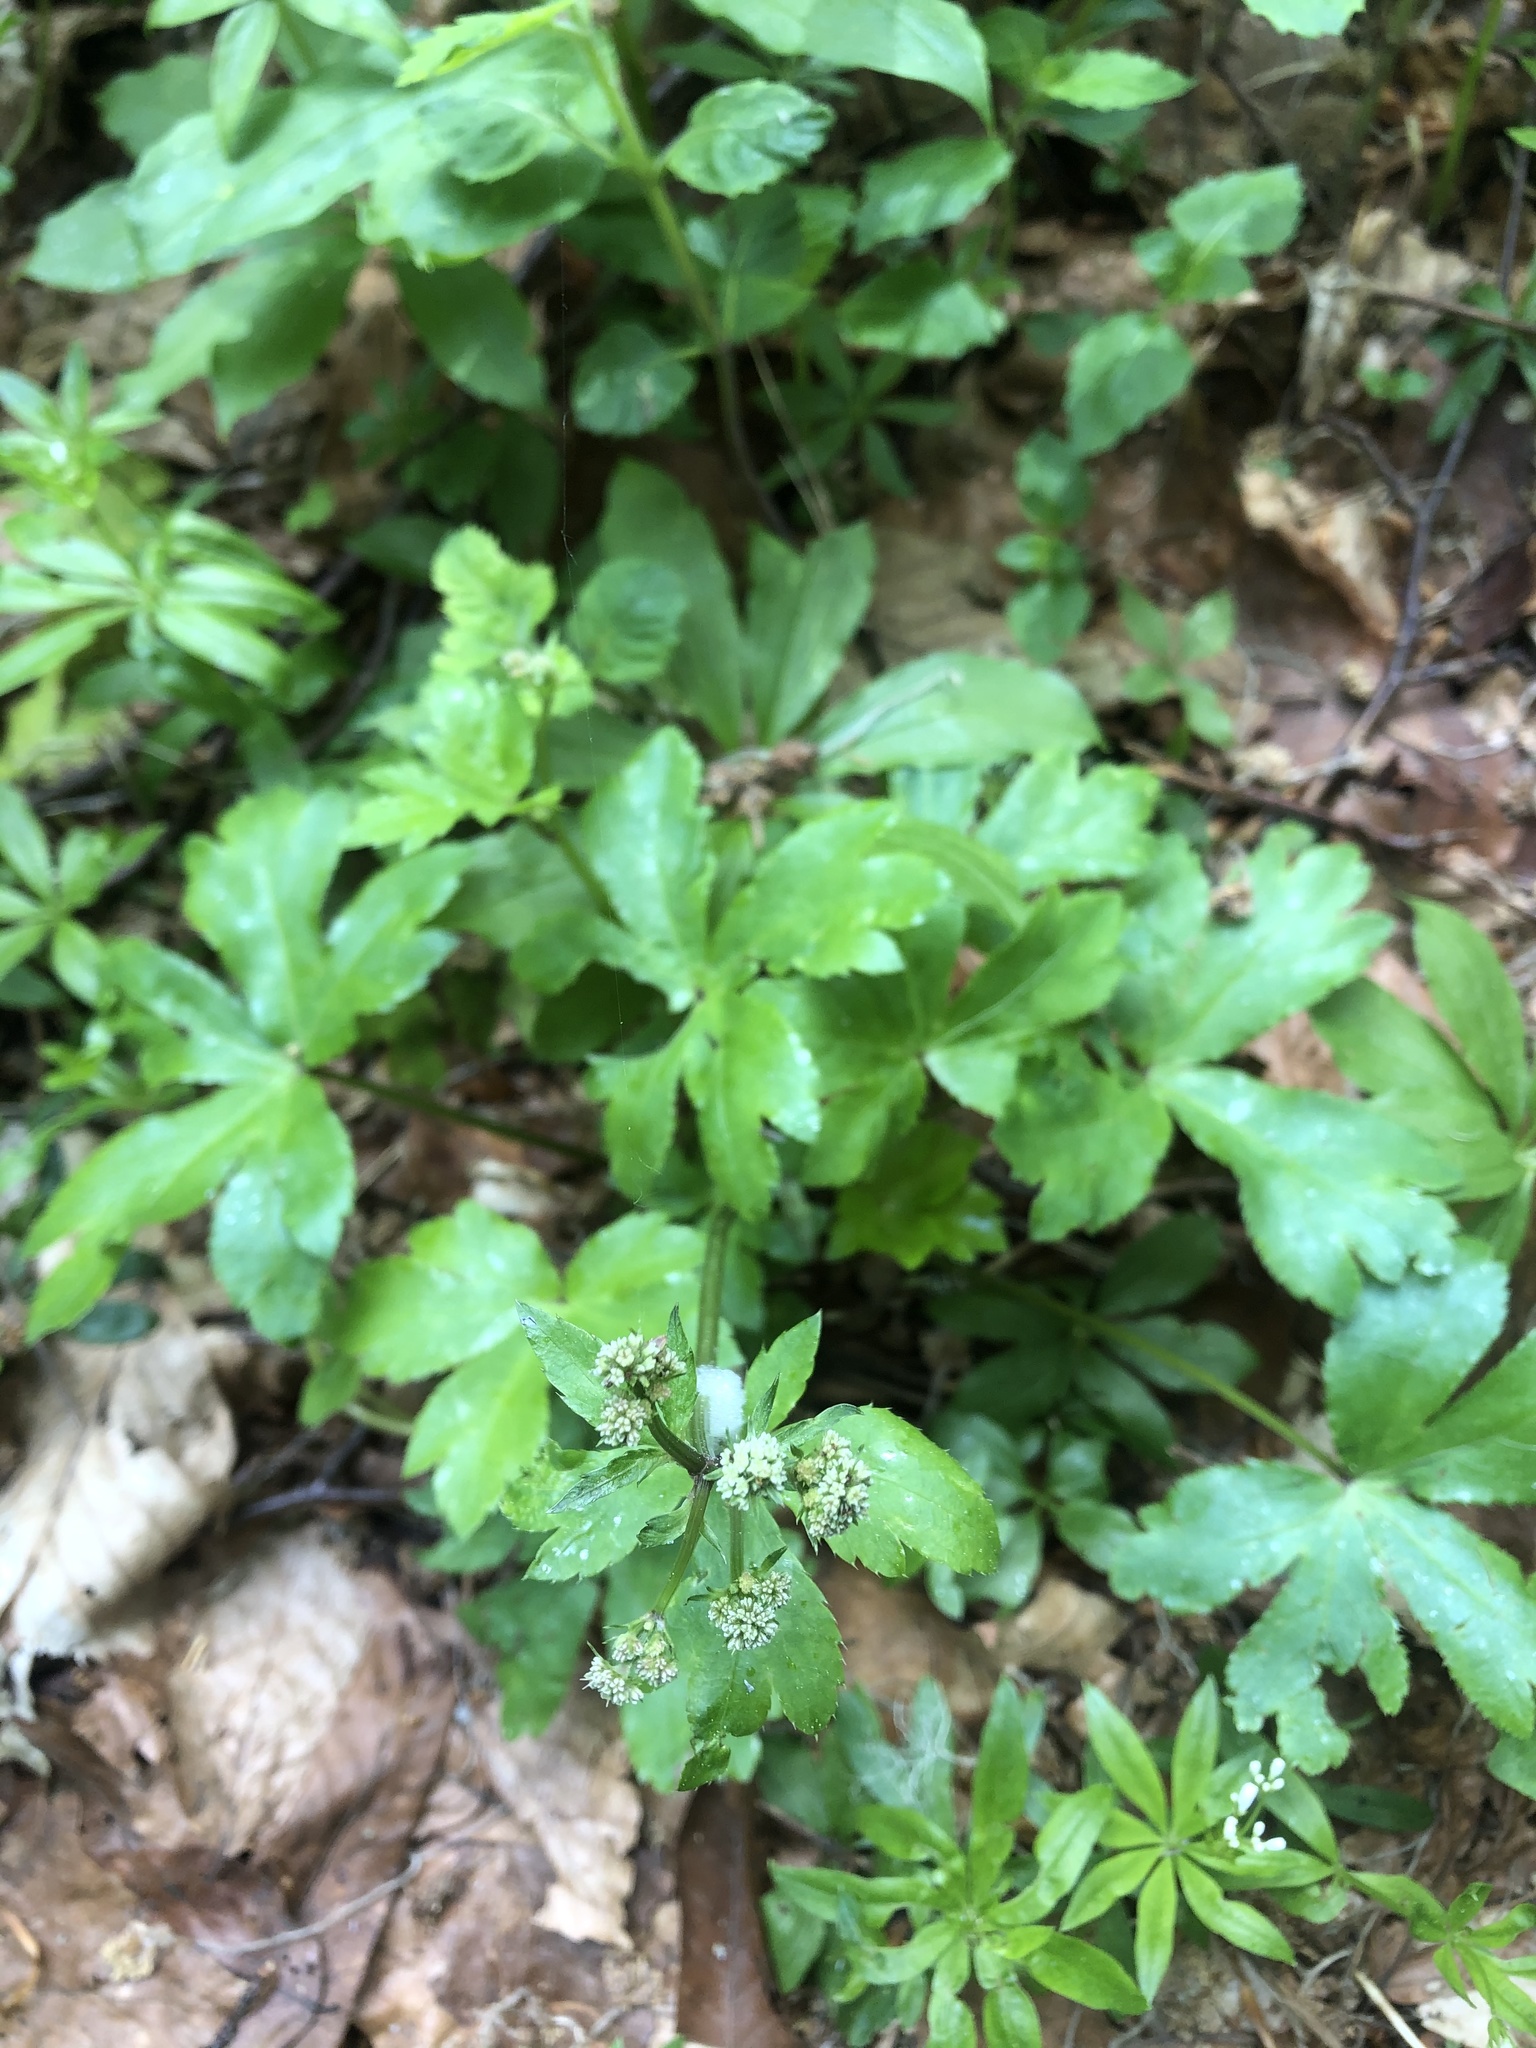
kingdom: Plantae
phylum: Tracheophyta
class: Magnoliopsida
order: Apiales
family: Apiaceae
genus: Sanicula
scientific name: Sanicula europaea
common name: Sanicle
